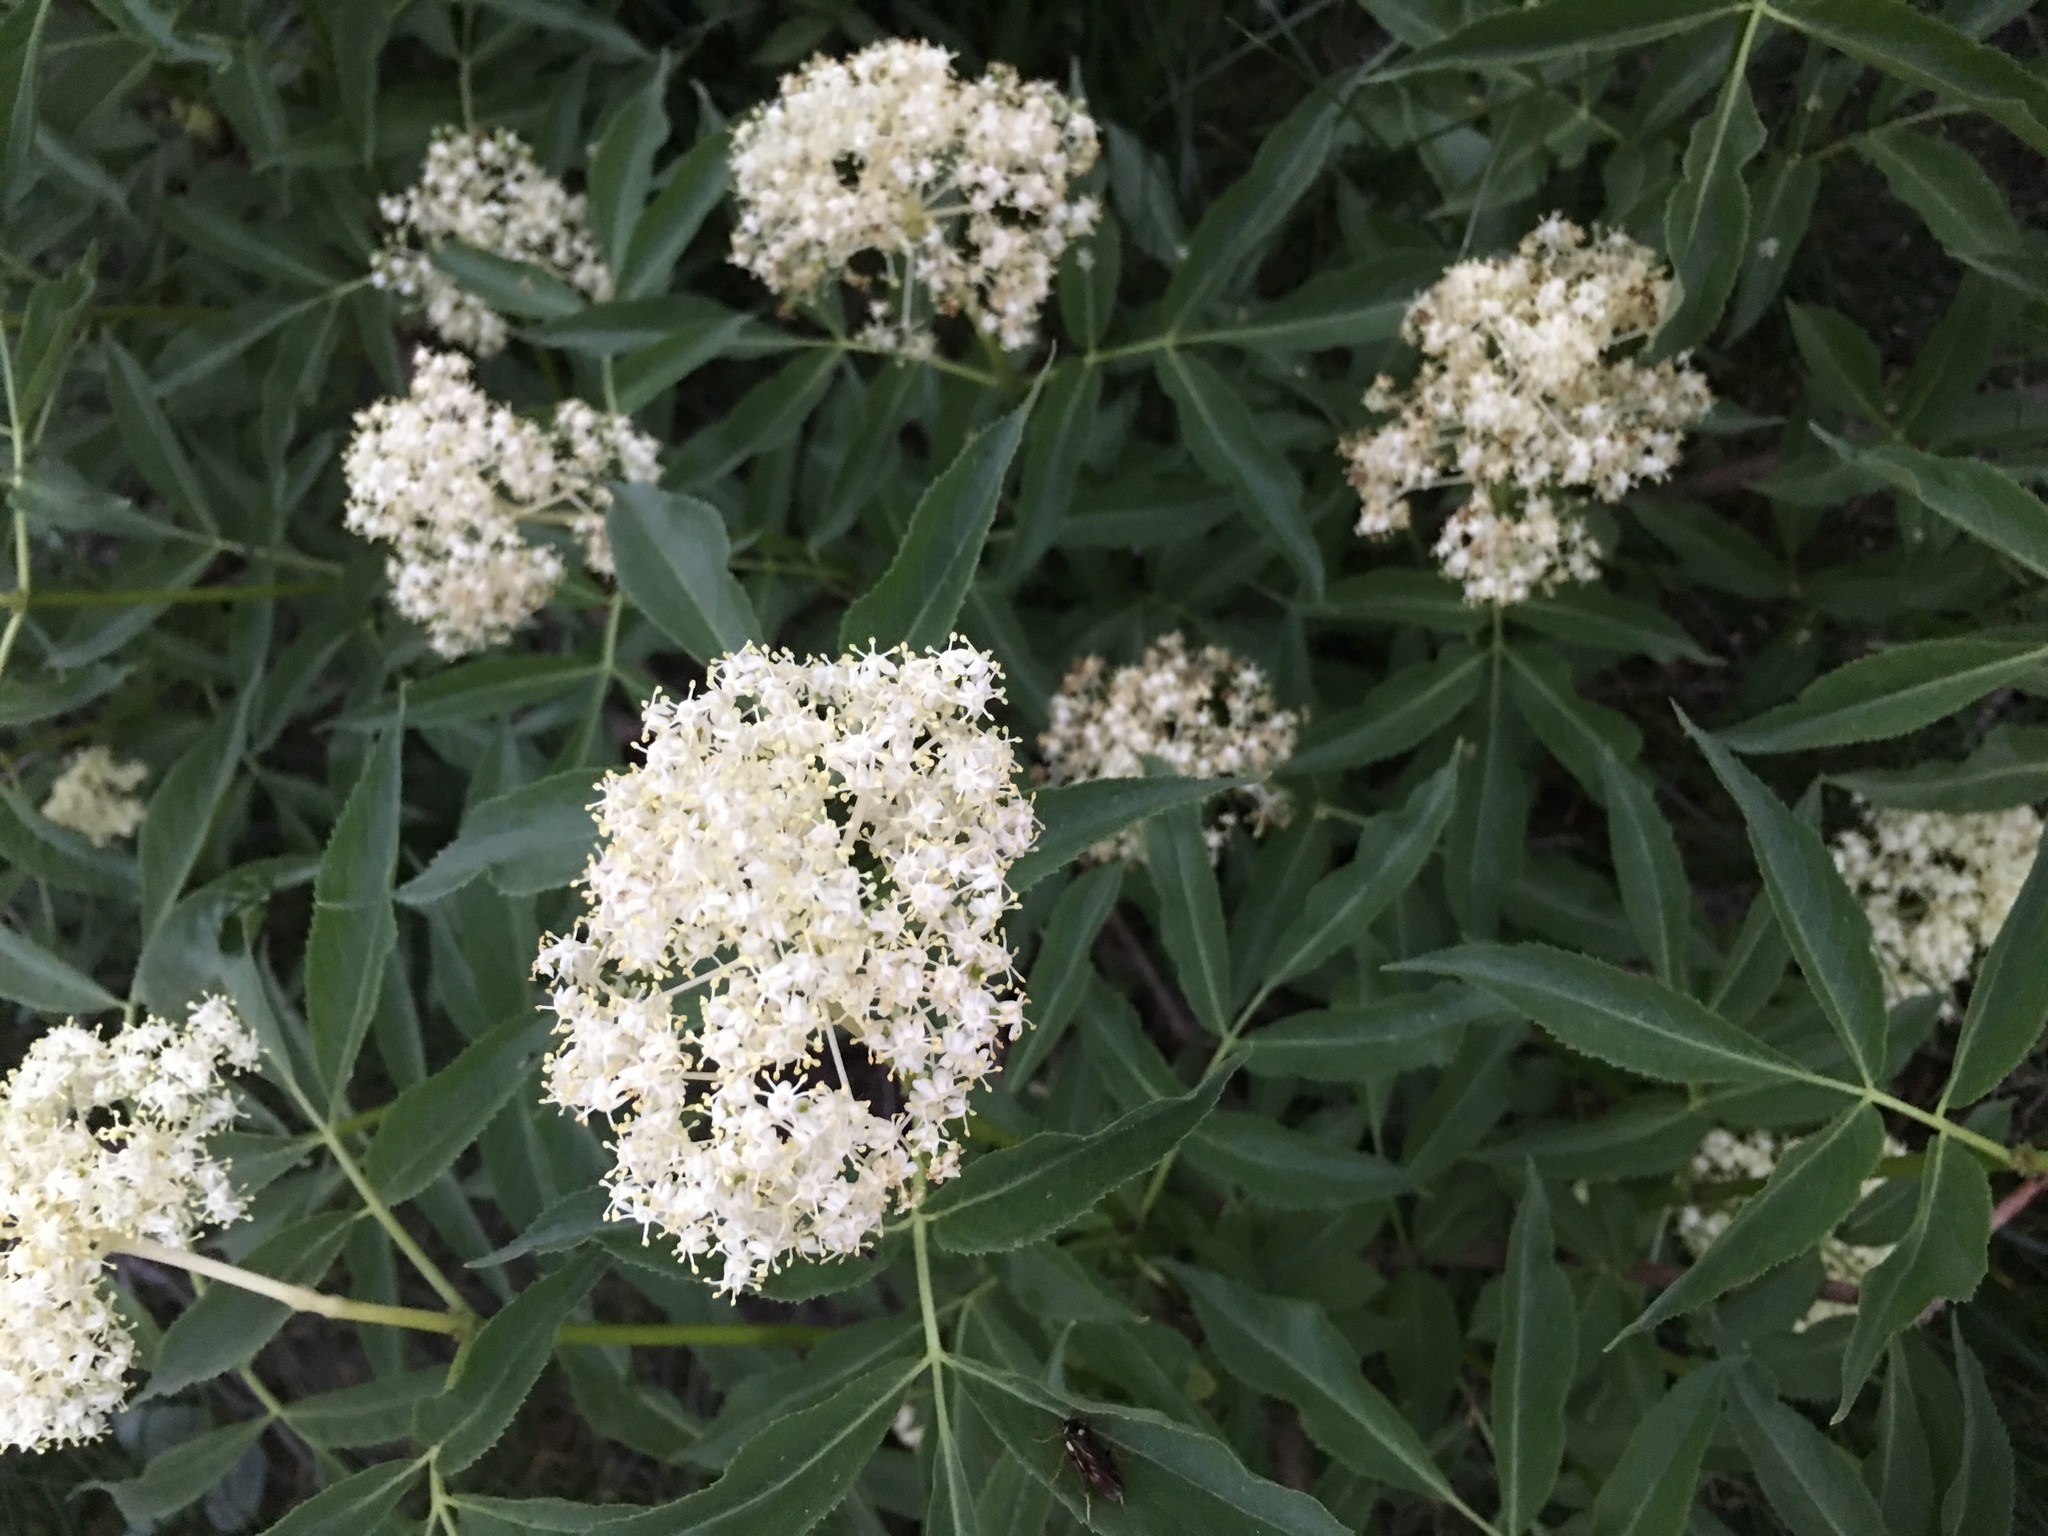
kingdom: Plantae
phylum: Tracheophyta
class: Magnoliopsida
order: Dipsacales
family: Viburnaceae
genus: Sambucus
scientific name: Sambucus racemosa
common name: Red-berried elder
